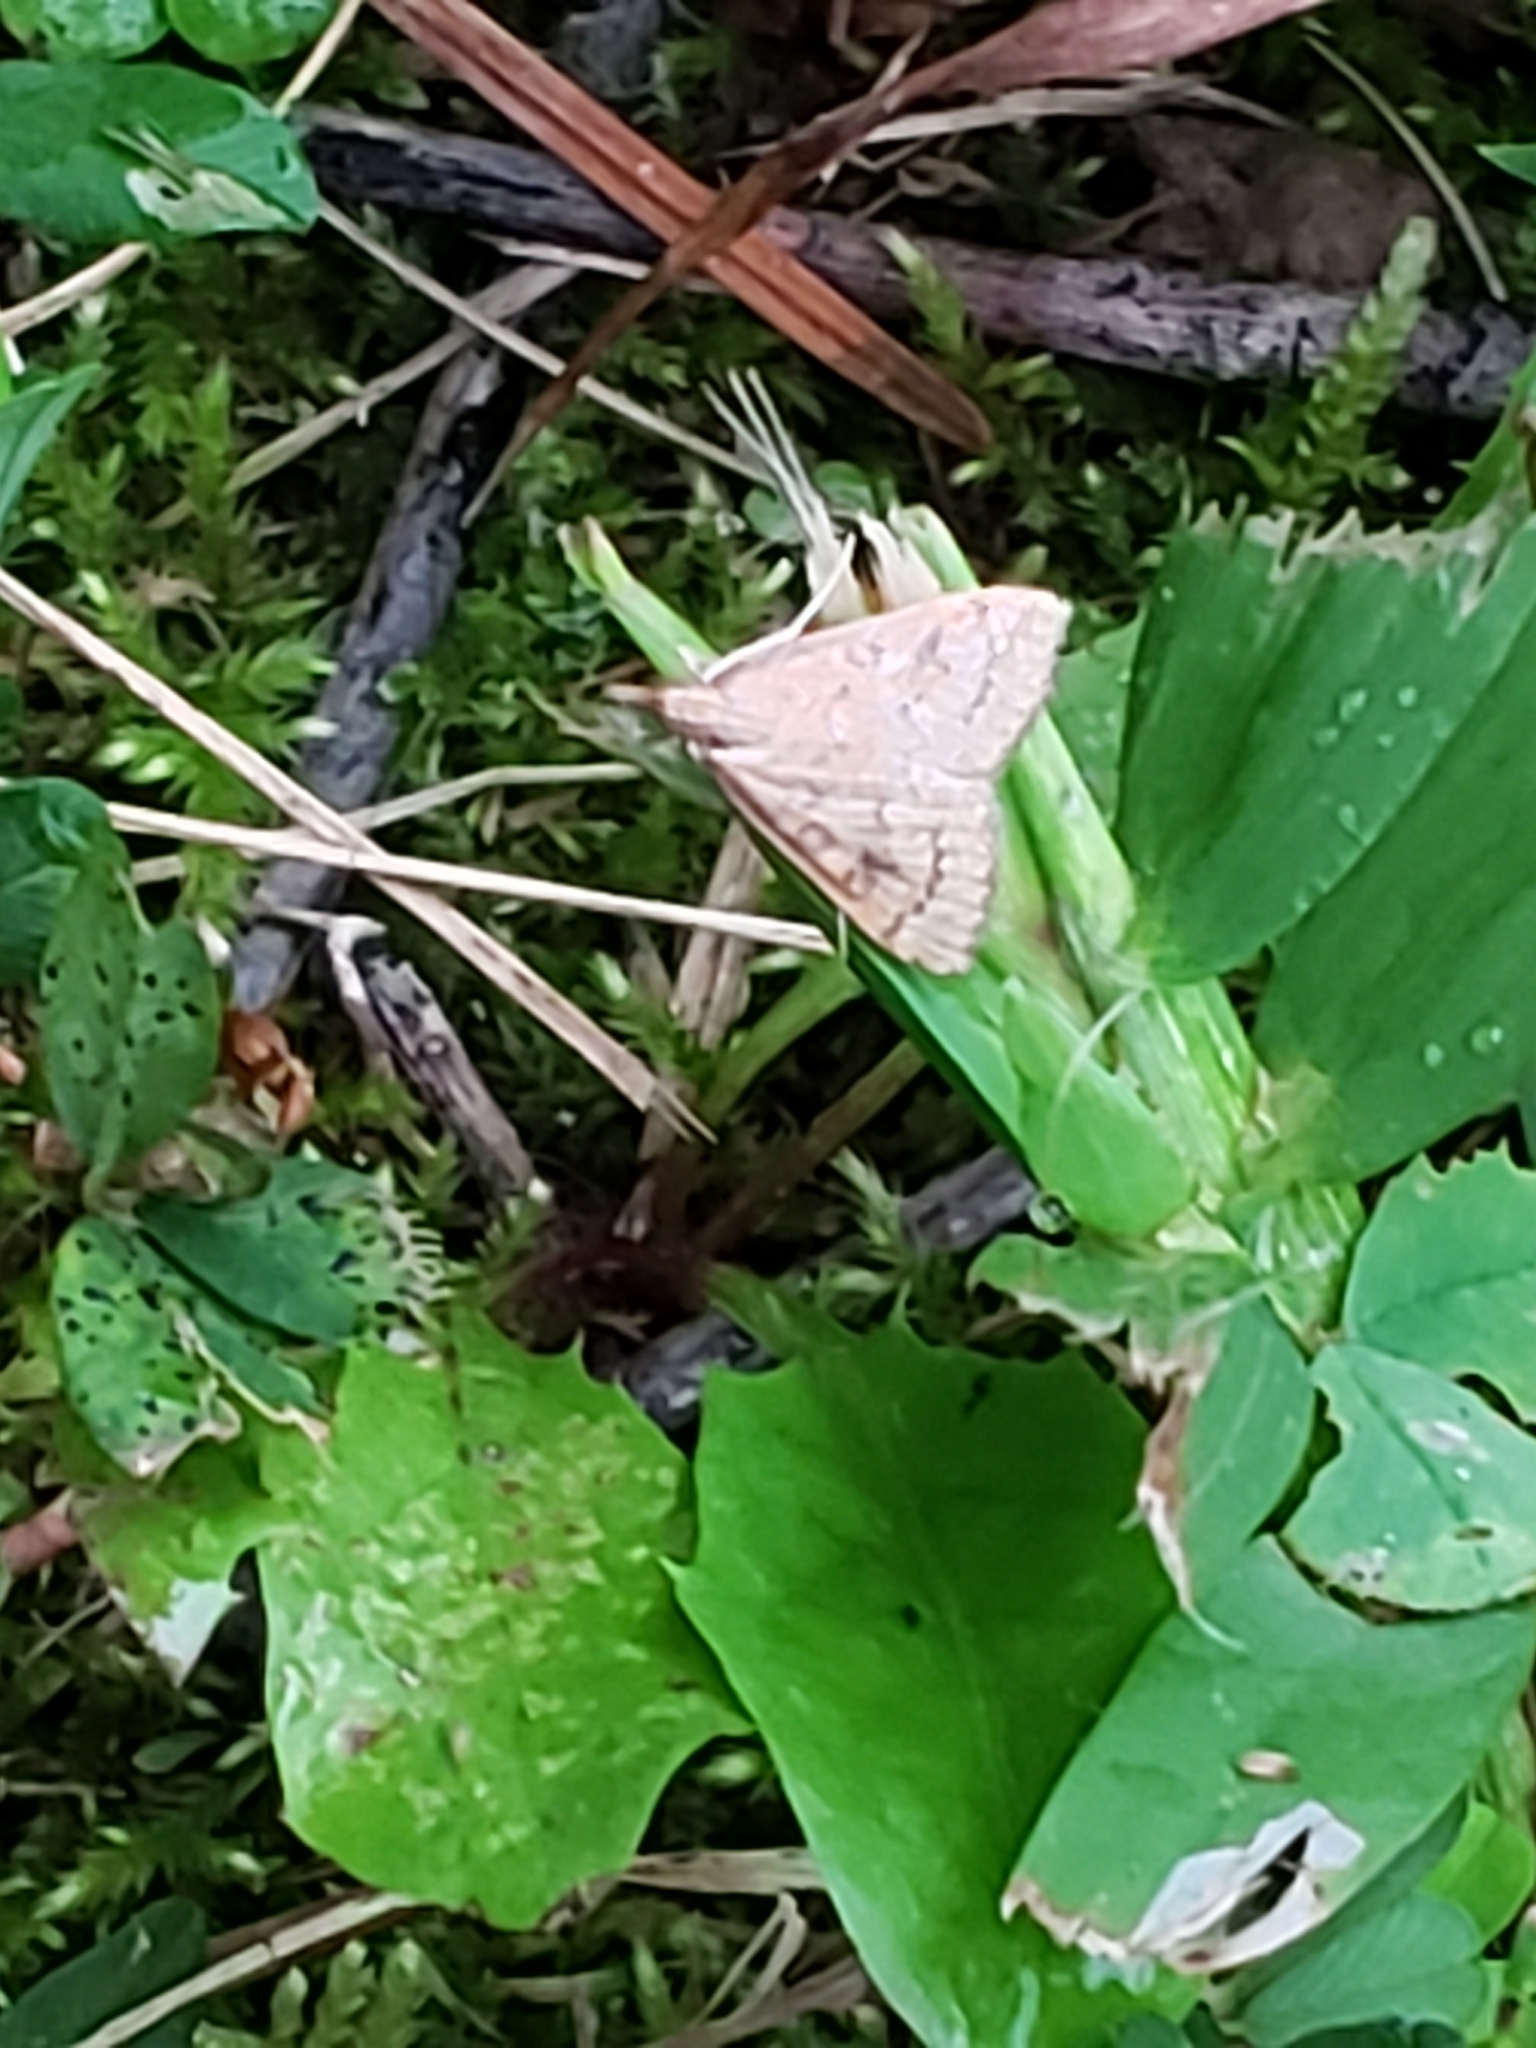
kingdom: Animalia
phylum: Arthropoda
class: Insecta
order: Lepidoptera
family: Crambidae
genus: Udea
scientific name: Udea rubigalis
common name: Celery leaftier moth
